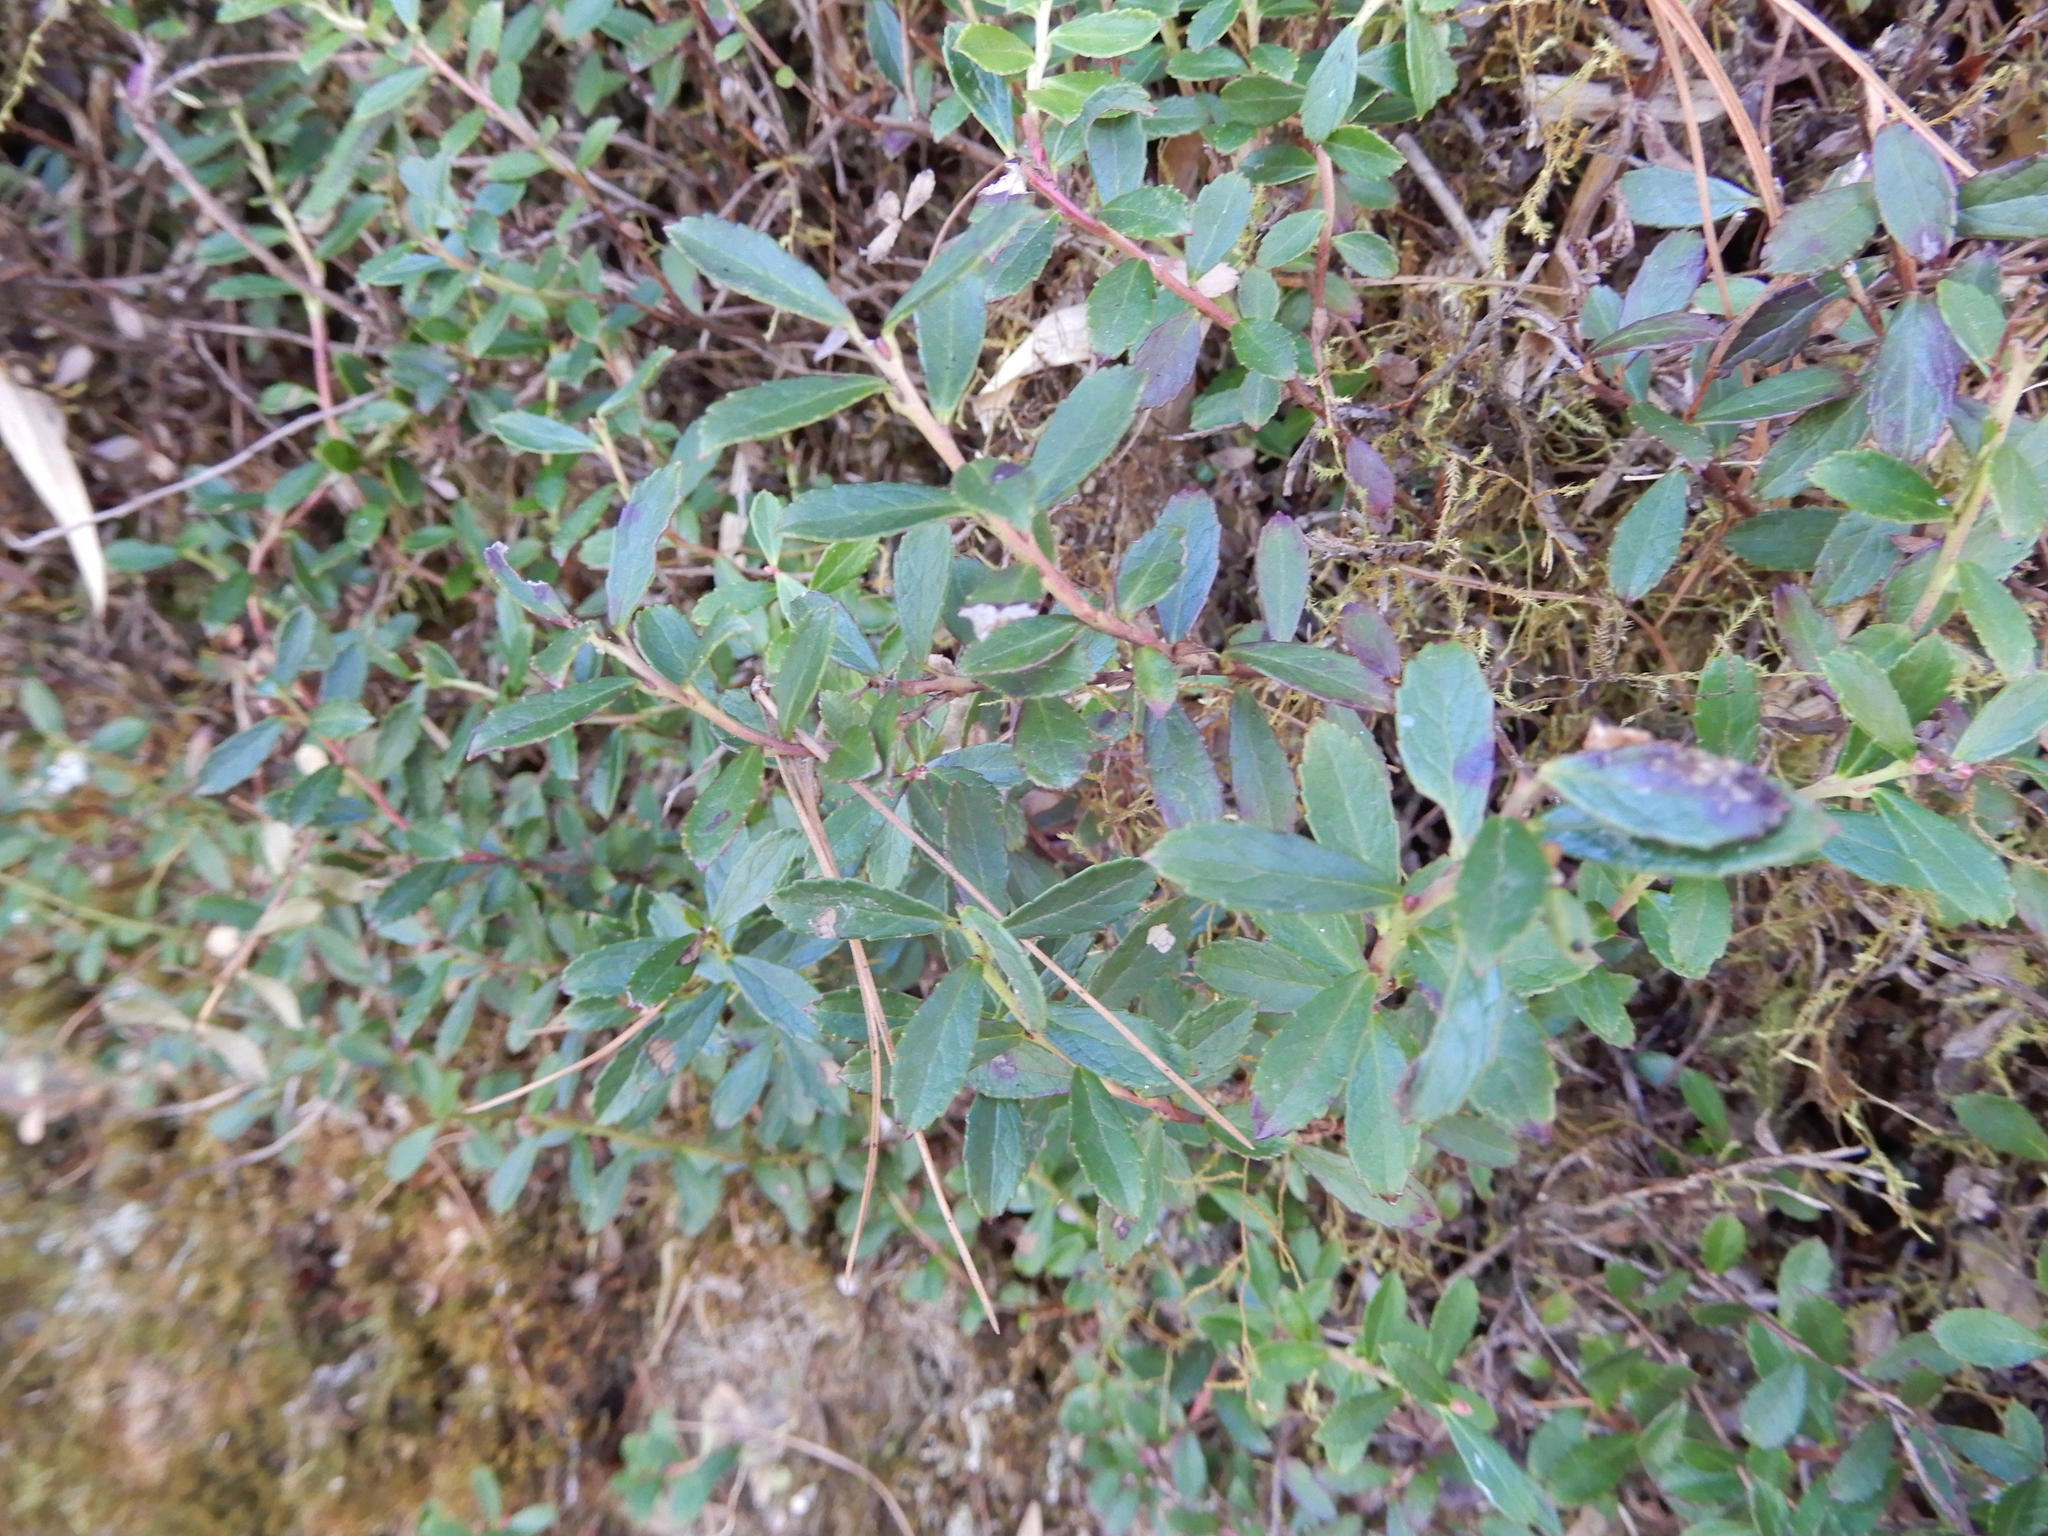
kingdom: Plantae
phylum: Tracheophyta
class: Magnoliopsida
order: Ericales
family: Ericaceae
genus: Gaultheria
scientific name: Gaultheria borneensis
